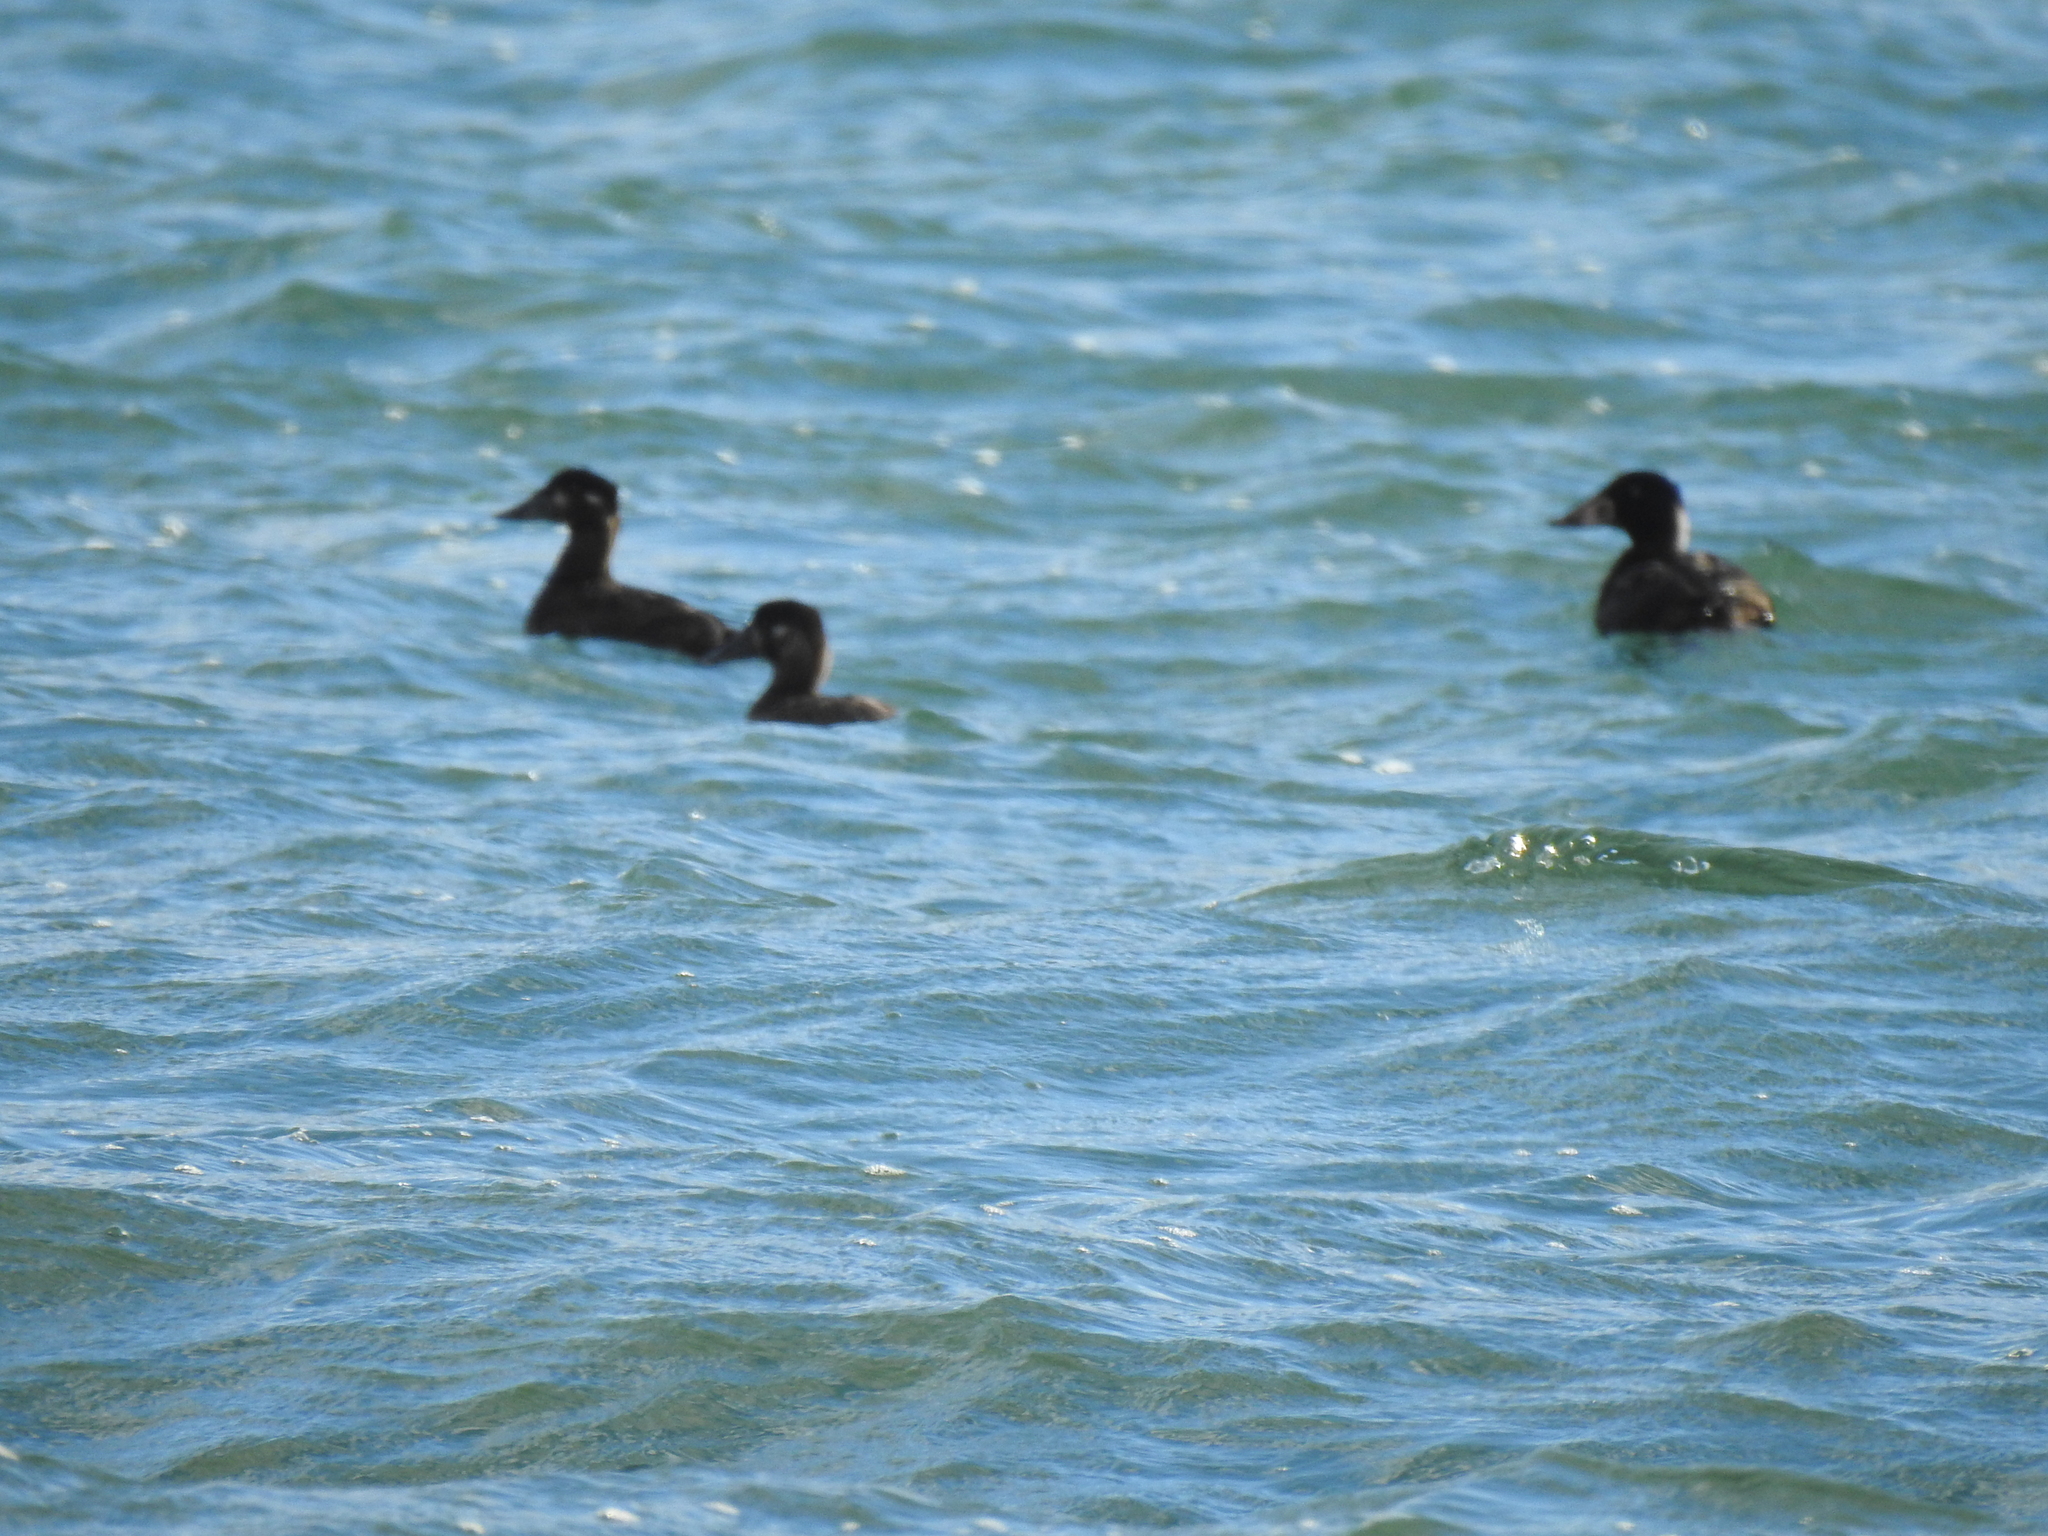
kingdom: Animalia
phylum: Chordata
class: Aves
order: Anseriformes
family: Anatidae
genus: Melanitta
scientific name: Melanitta perspicillata
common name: Surf scoter
